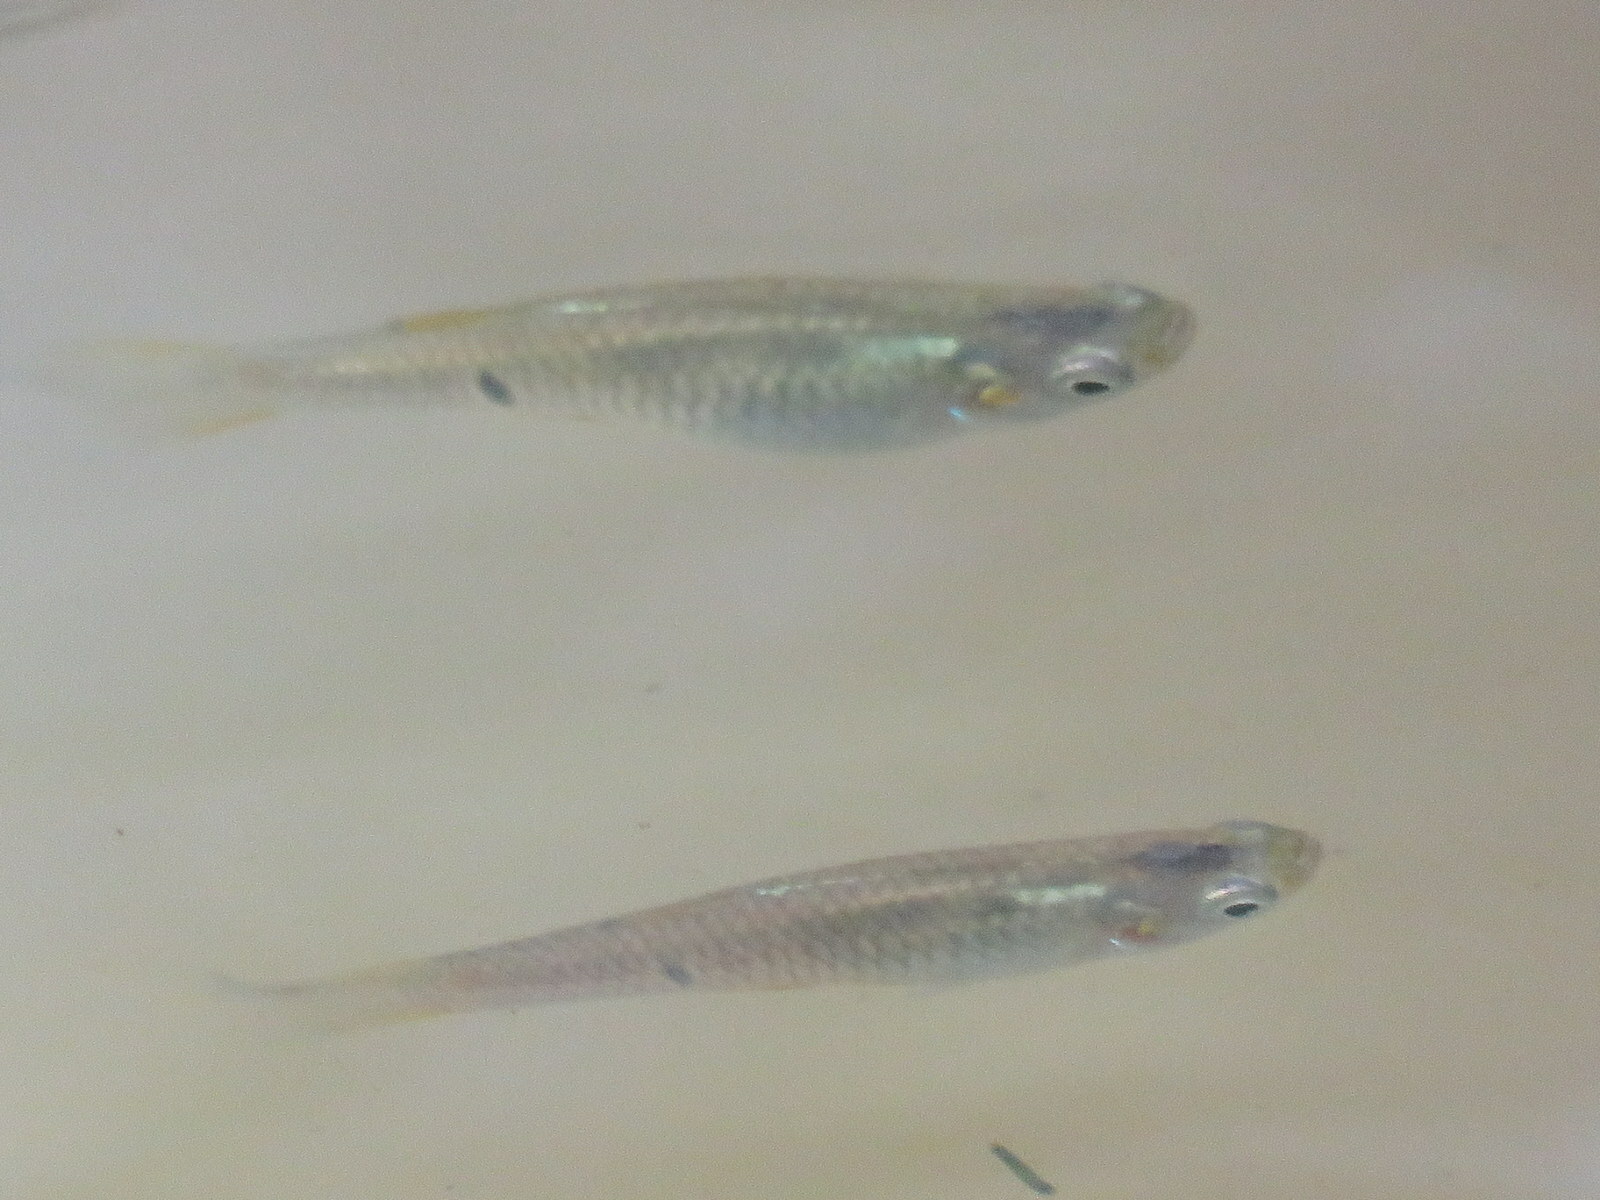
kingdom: Animalia
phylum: Chordata
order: Cyprinodontiformes
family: Poeciliidae
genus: Phalloceros
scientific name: Phalloceros caudimaculatus
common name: Dusky millions fish
